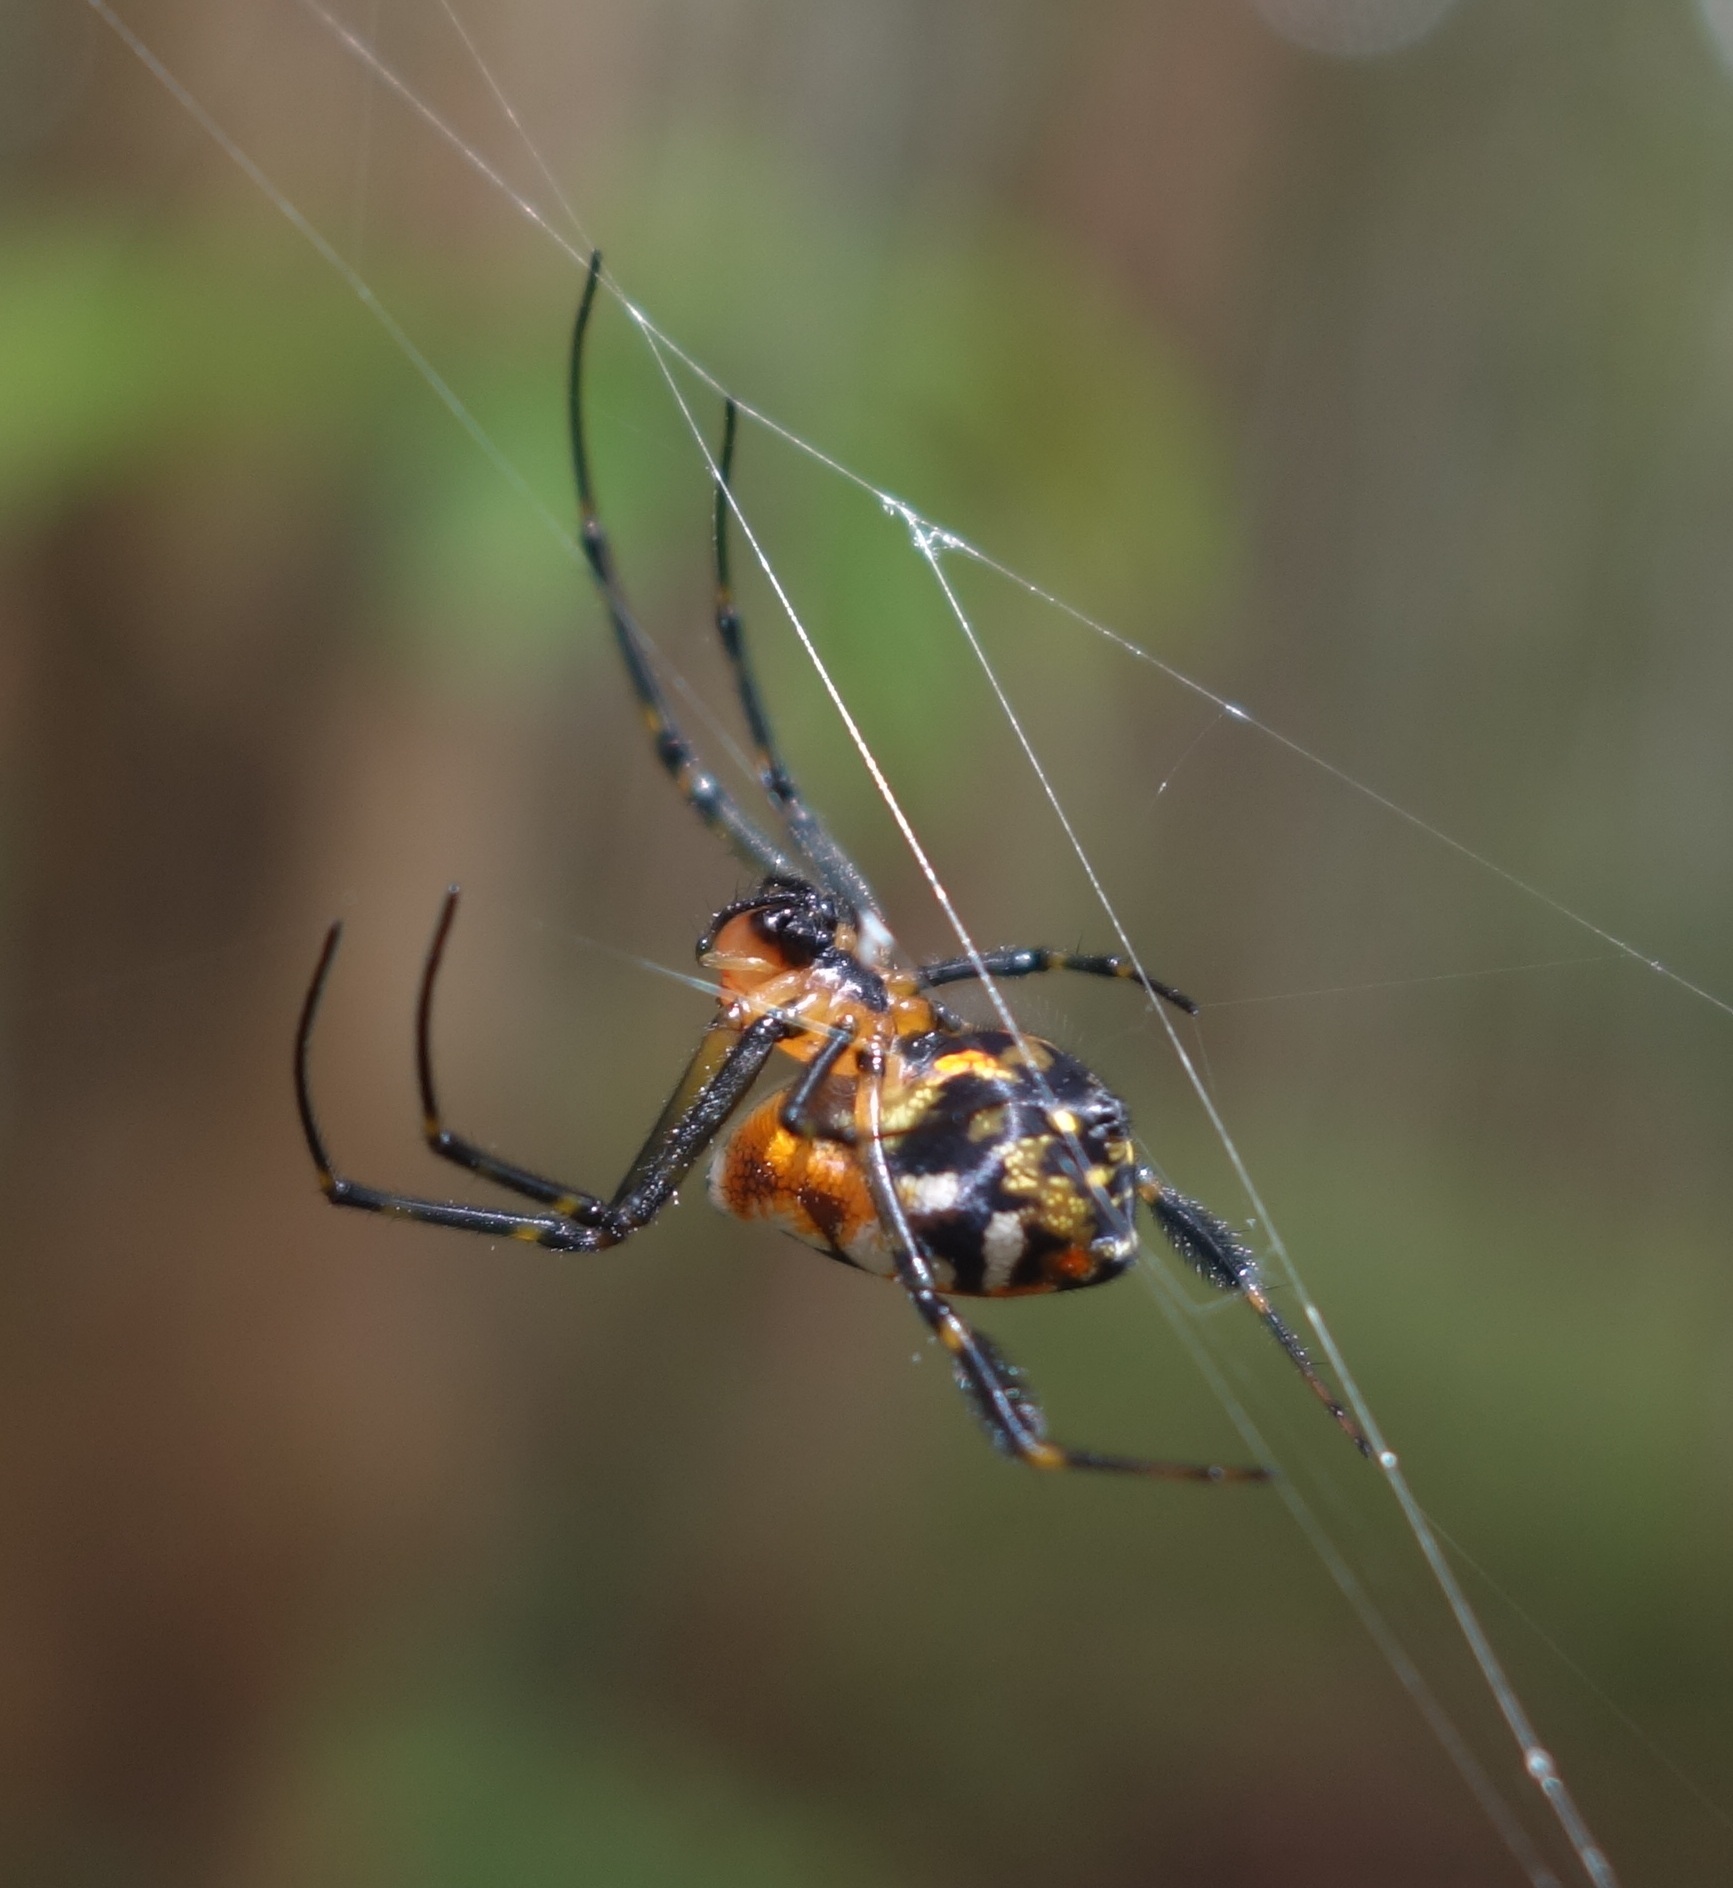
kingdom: Animalia
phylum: Arthropoda
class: Arachnida
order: Araneae
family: Tetragnathidae
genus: Leucauge
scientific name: Leucauge fastigata
